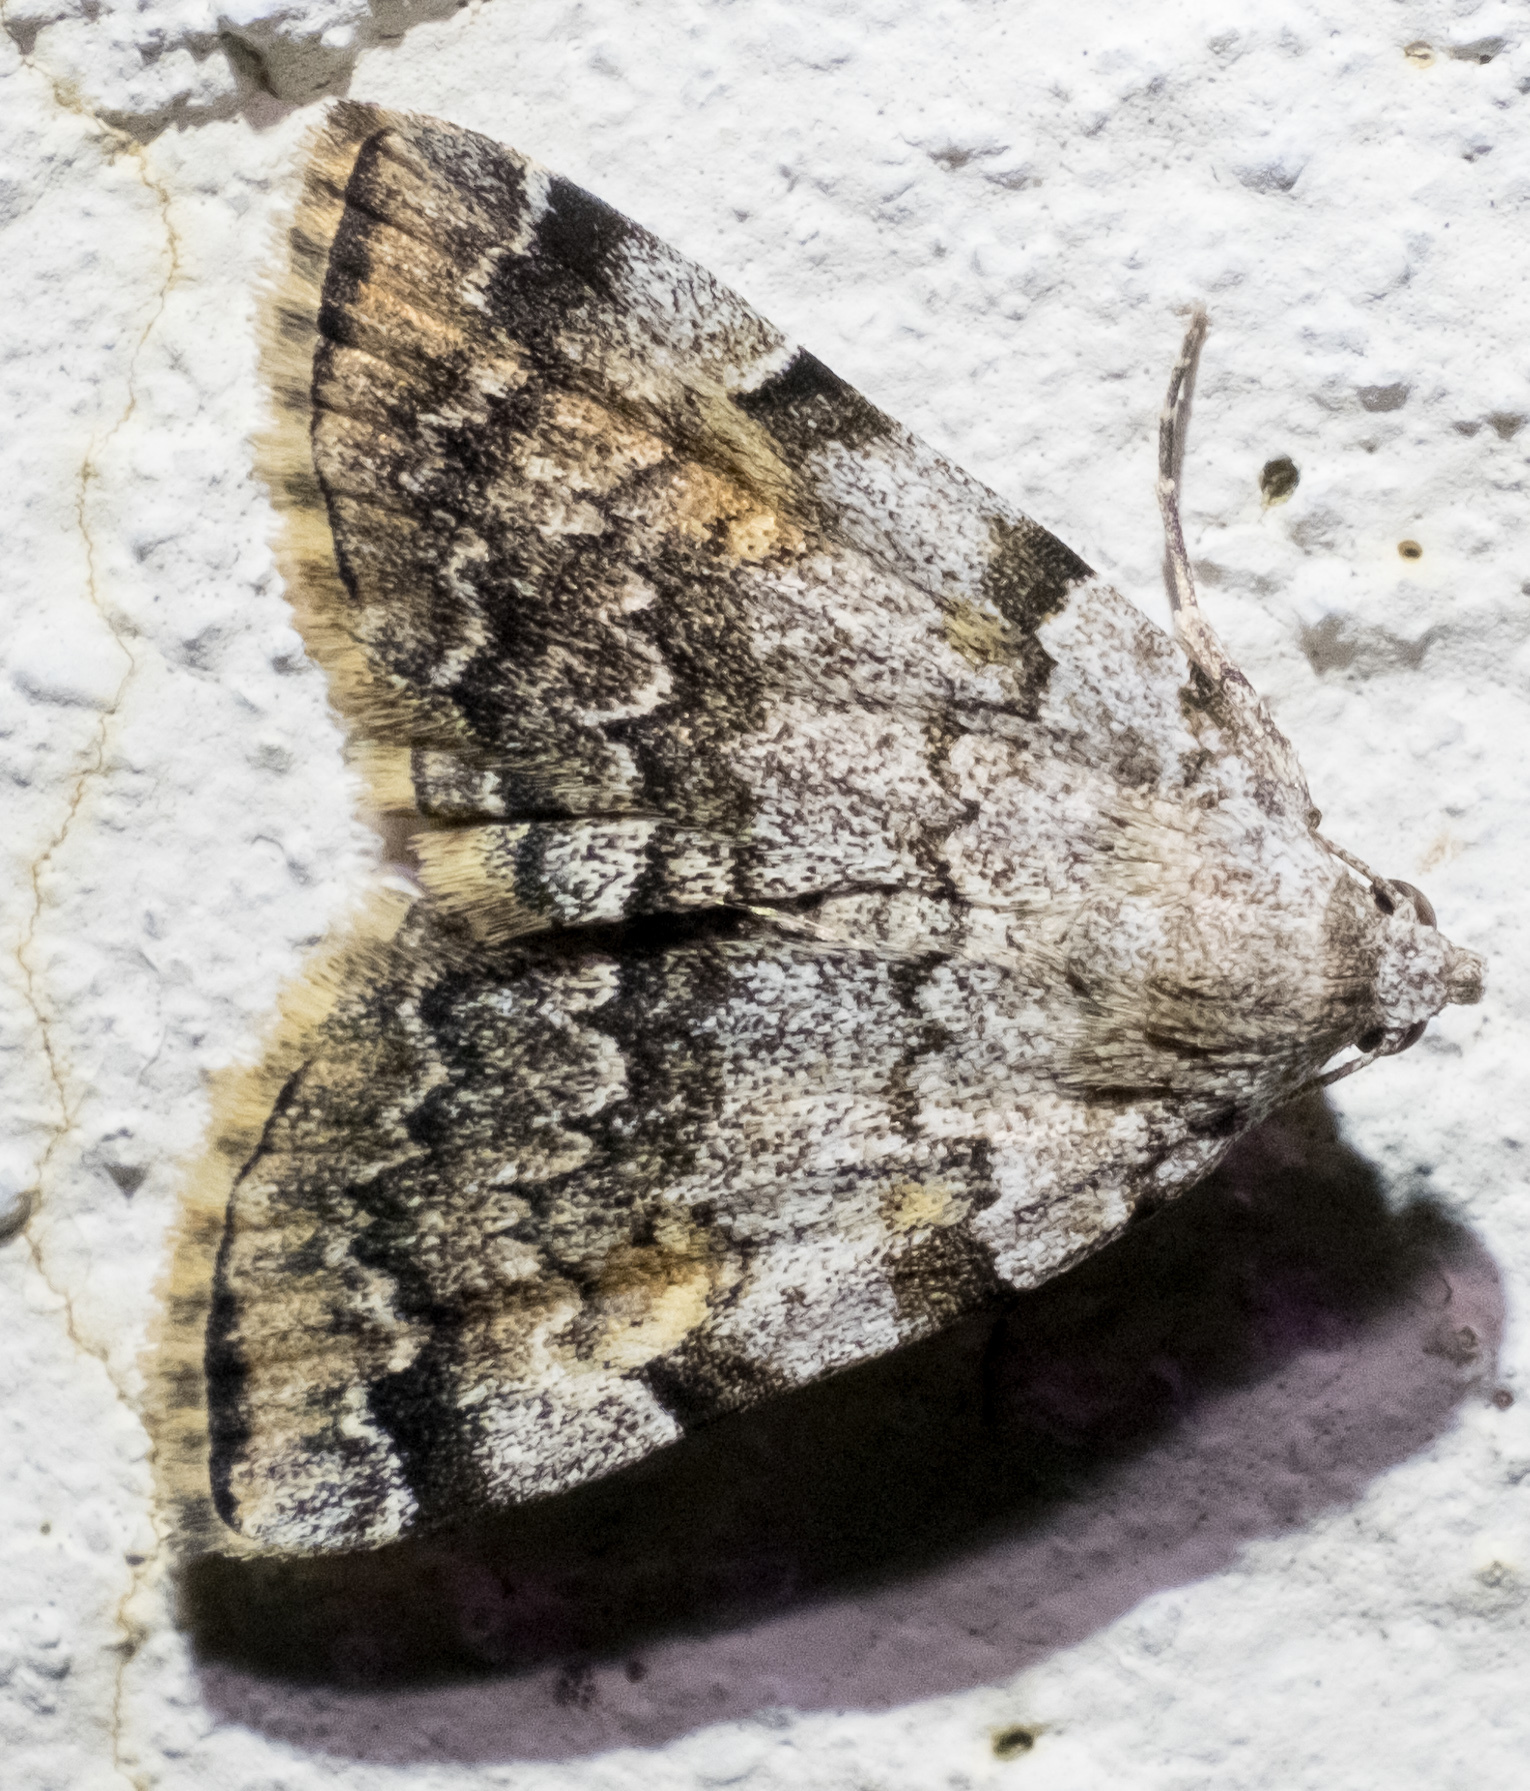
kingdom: Animalia
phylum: Arthropoda
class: Insecta
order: Lepidoptera
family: Erebidae
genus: Idia
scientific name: Idia americalis
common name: American idia moth
